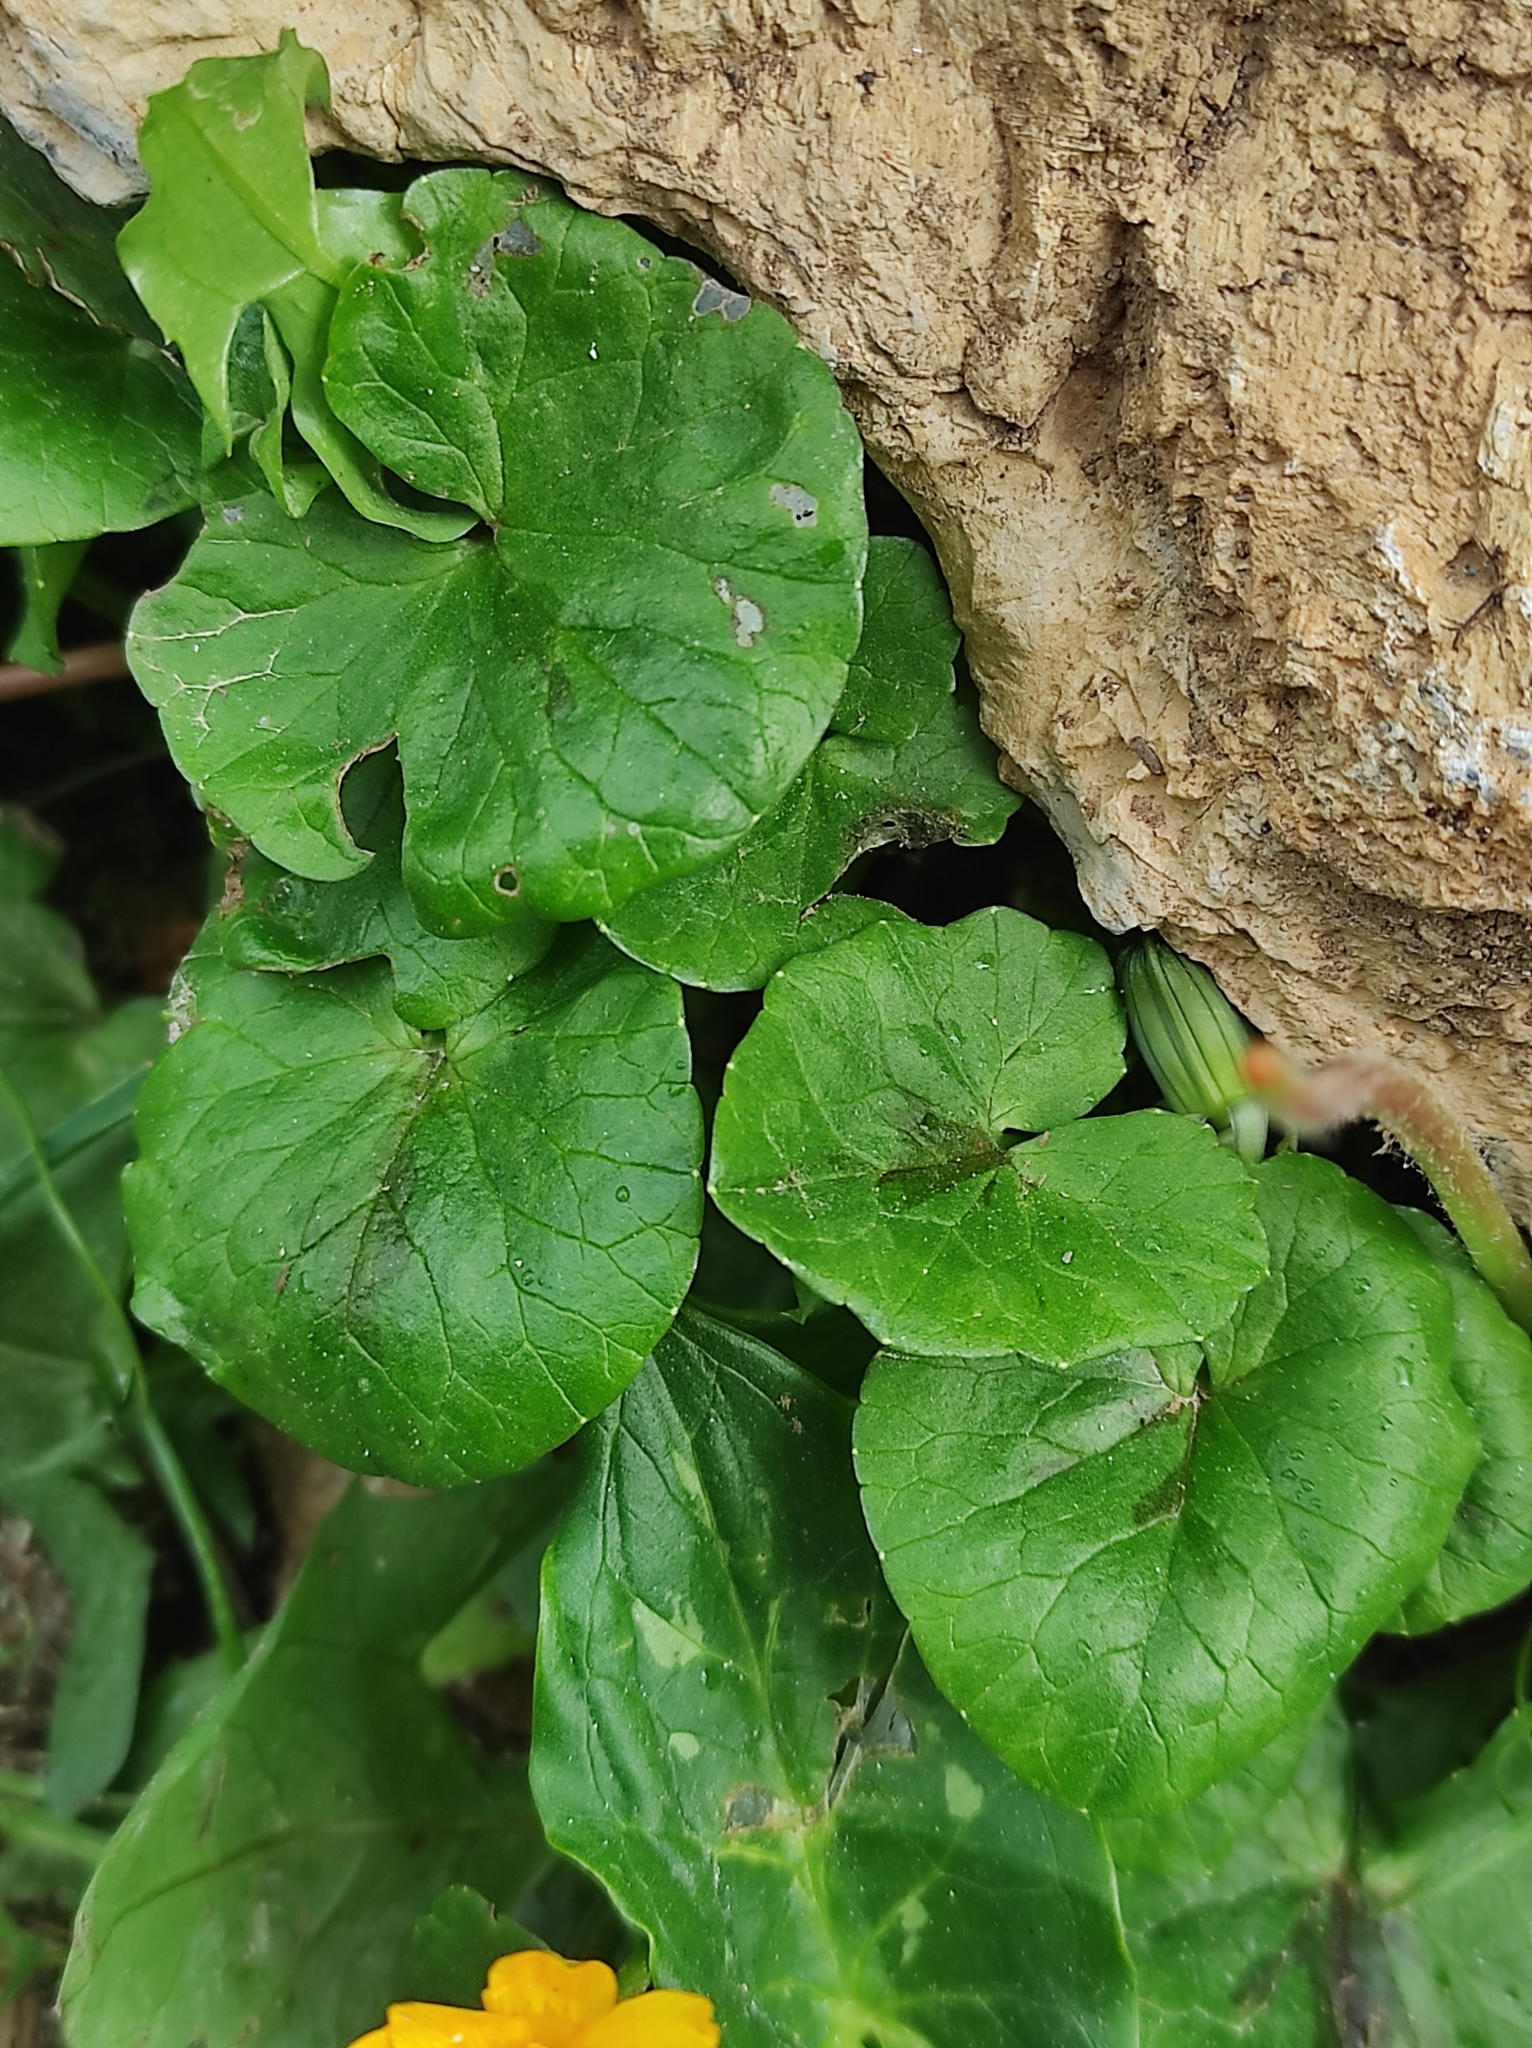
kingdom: Plantae
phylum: Tracheophyta
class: Magnoliopsida
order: Ranunculales
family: Ranunculaceae
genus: Ficaria
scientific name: Ficaria verna
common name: Lesser celandine
